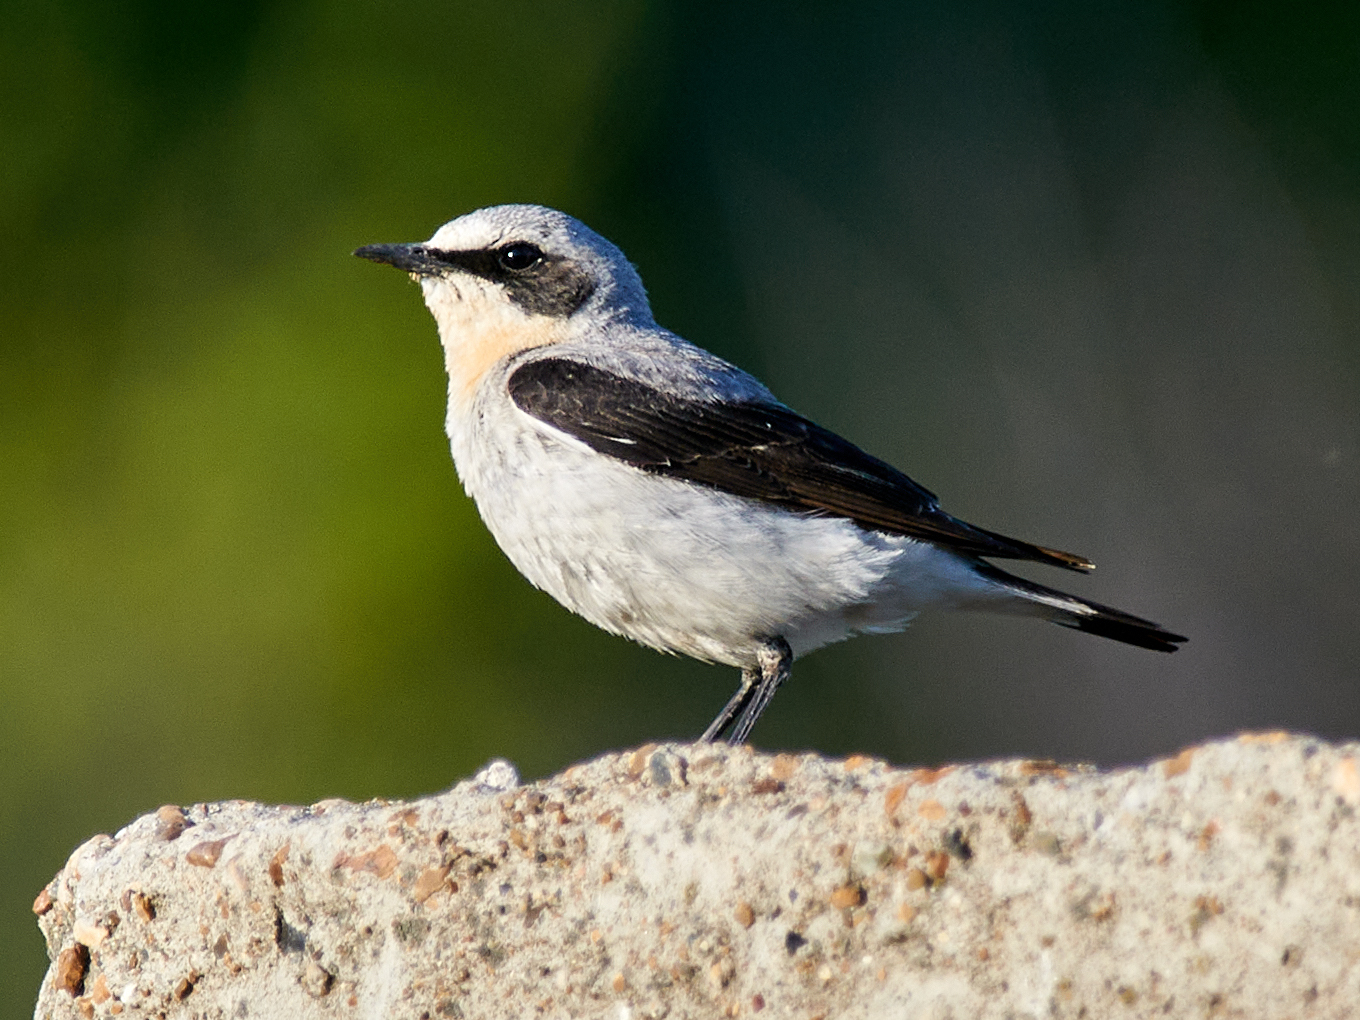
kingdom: Animalia
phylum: Chordata
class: Aves
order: Passeriformes
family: Muscicapidae
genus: Oenanthe
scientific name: Oenanthe oenanthe
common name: Northern wheatear
